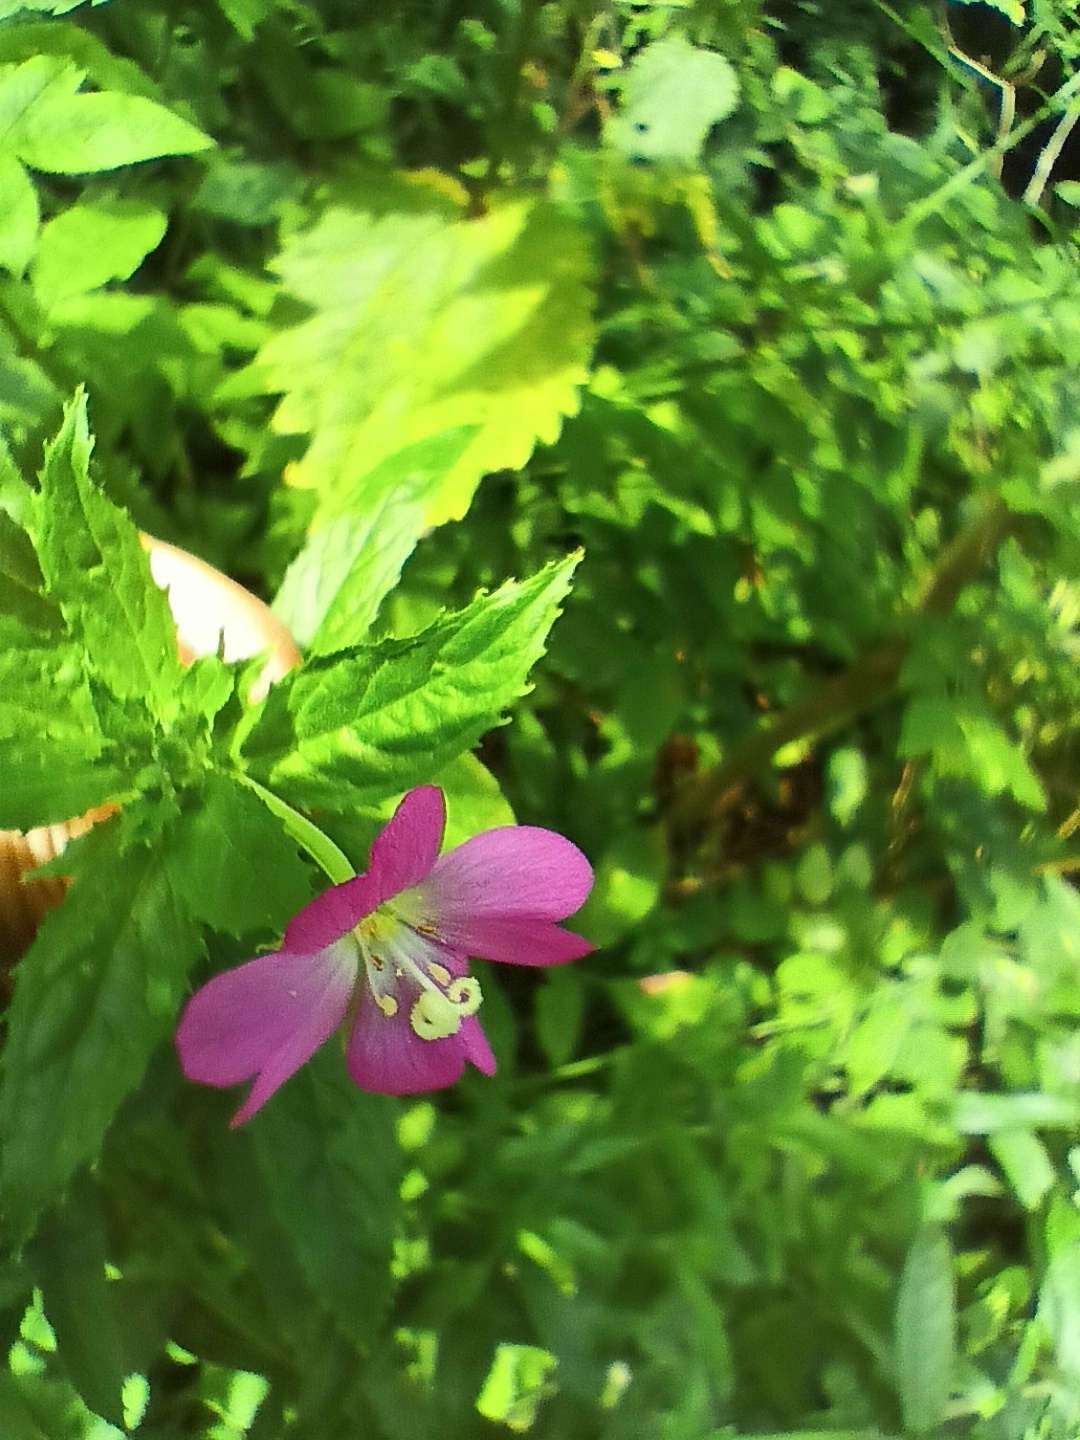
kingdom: Plantae
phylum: Tracheophyta
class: Magnoliopsida
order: Myrtales
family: Onagraceae
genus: Epilobium
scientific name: Epilobium hirsutum
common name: Great willowherb
